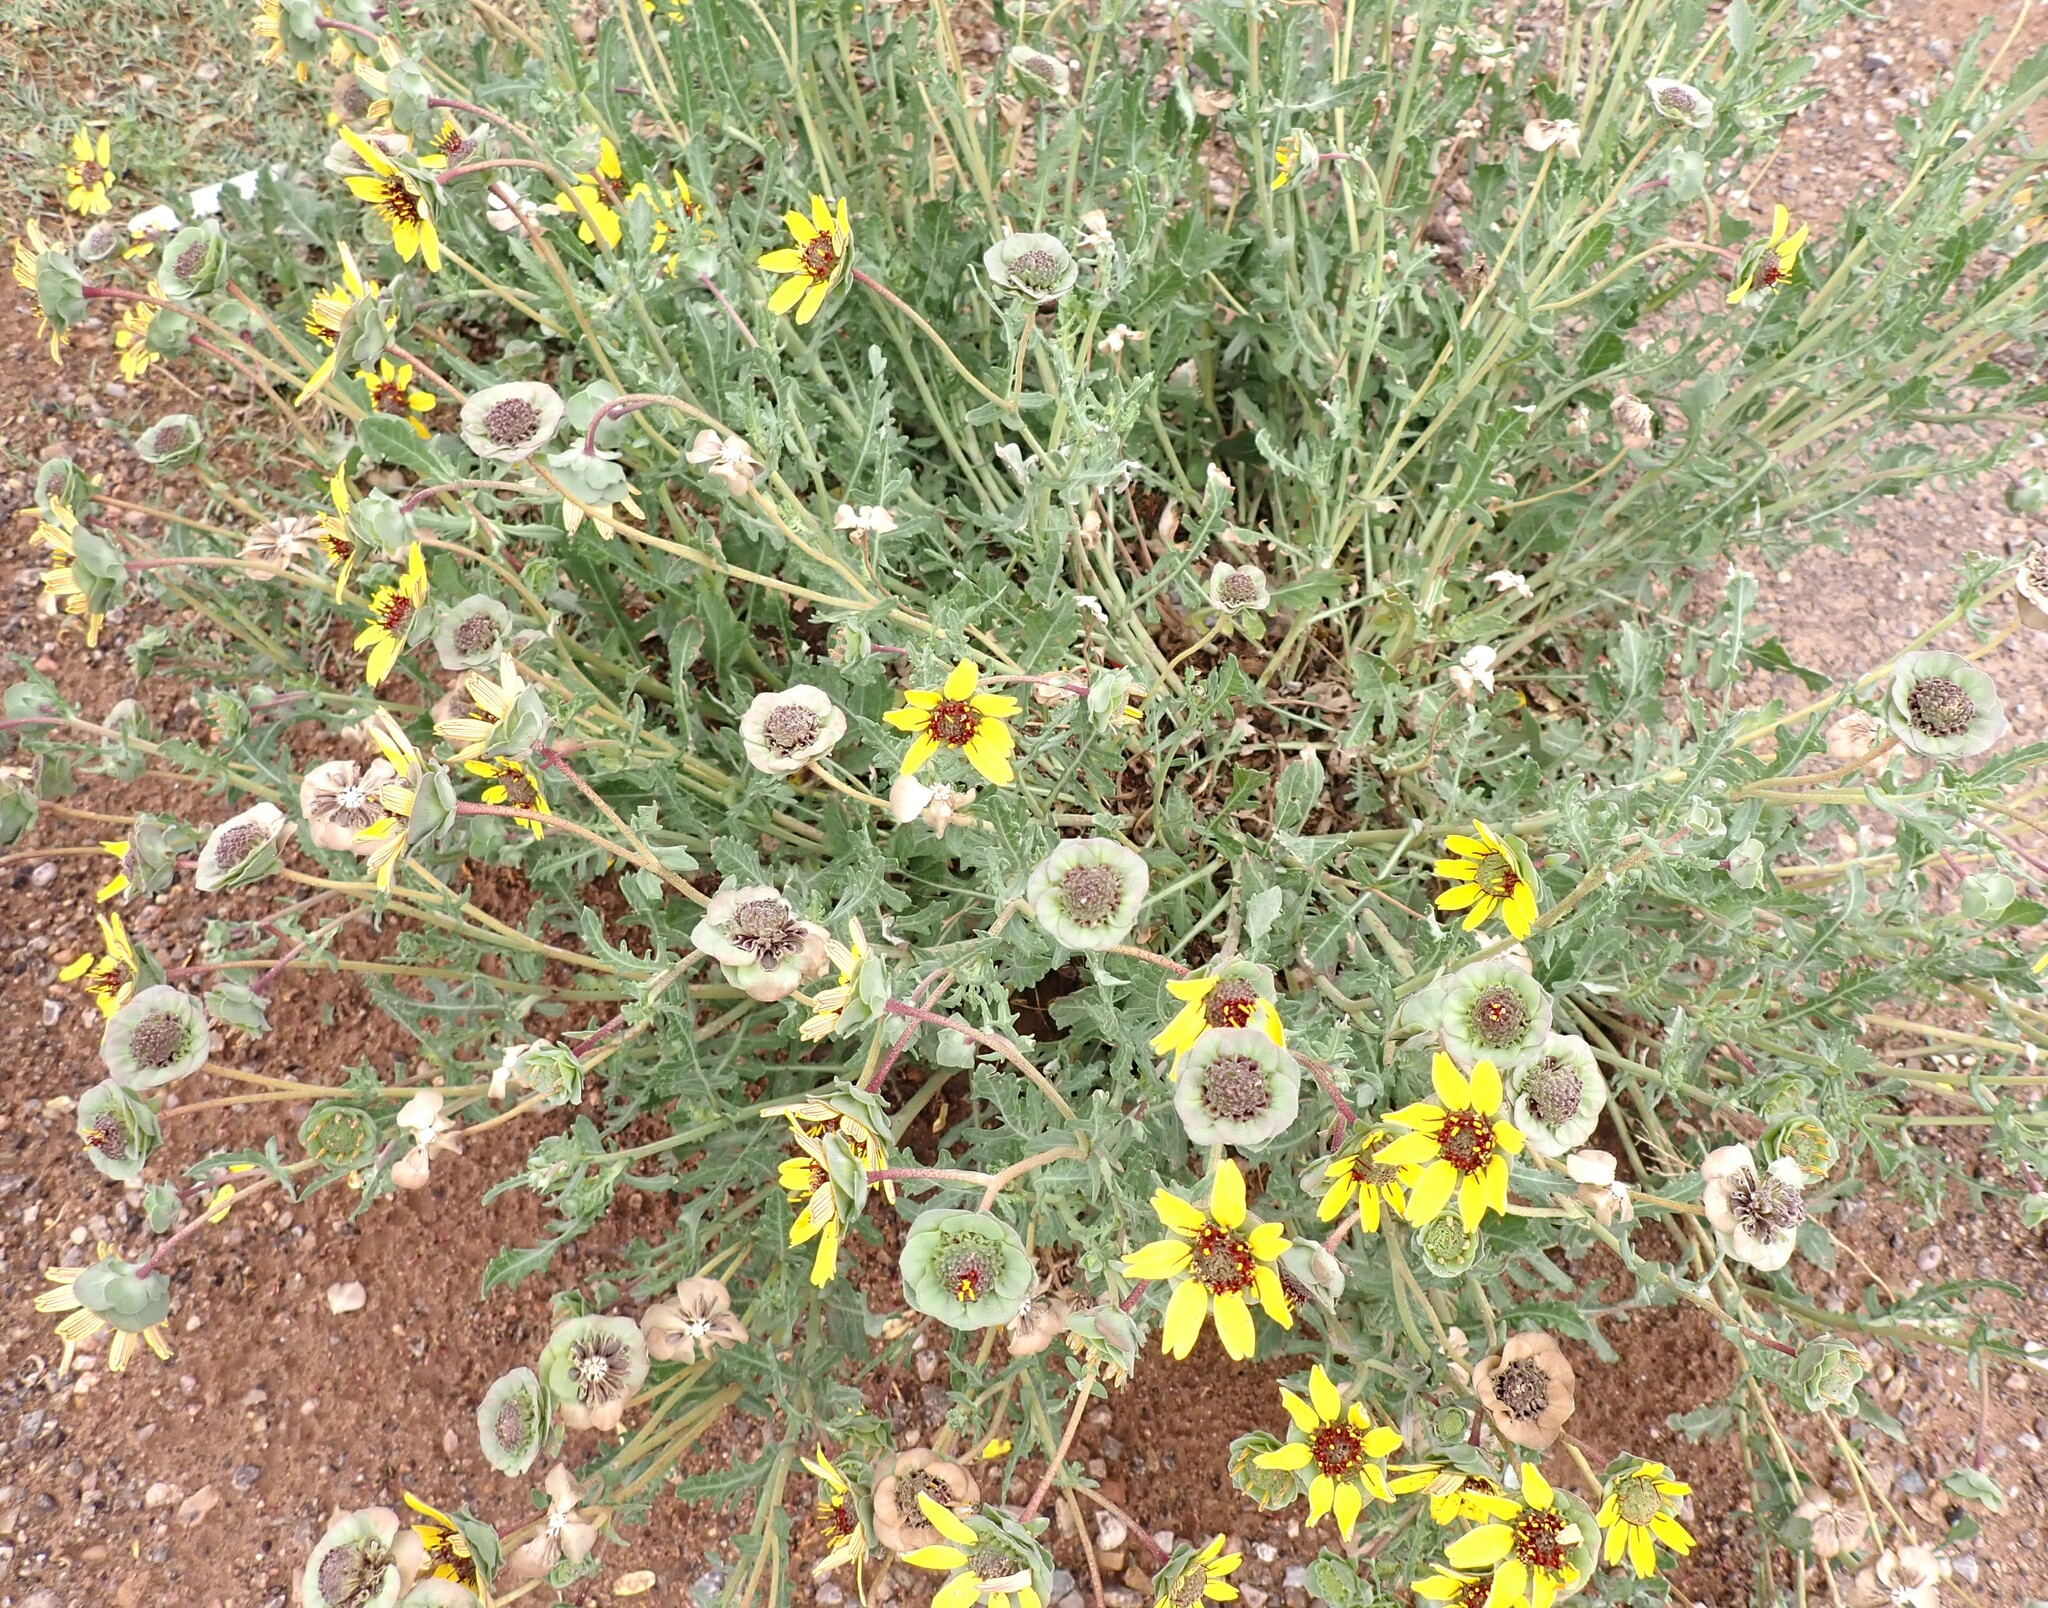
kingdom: Plantae
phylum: Tracheophyta
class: Magnoliopsida
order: Asterales
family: Asteraceae
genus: Berlandiera
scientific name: Berlandiera lyrata
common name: Chocolate-flower
